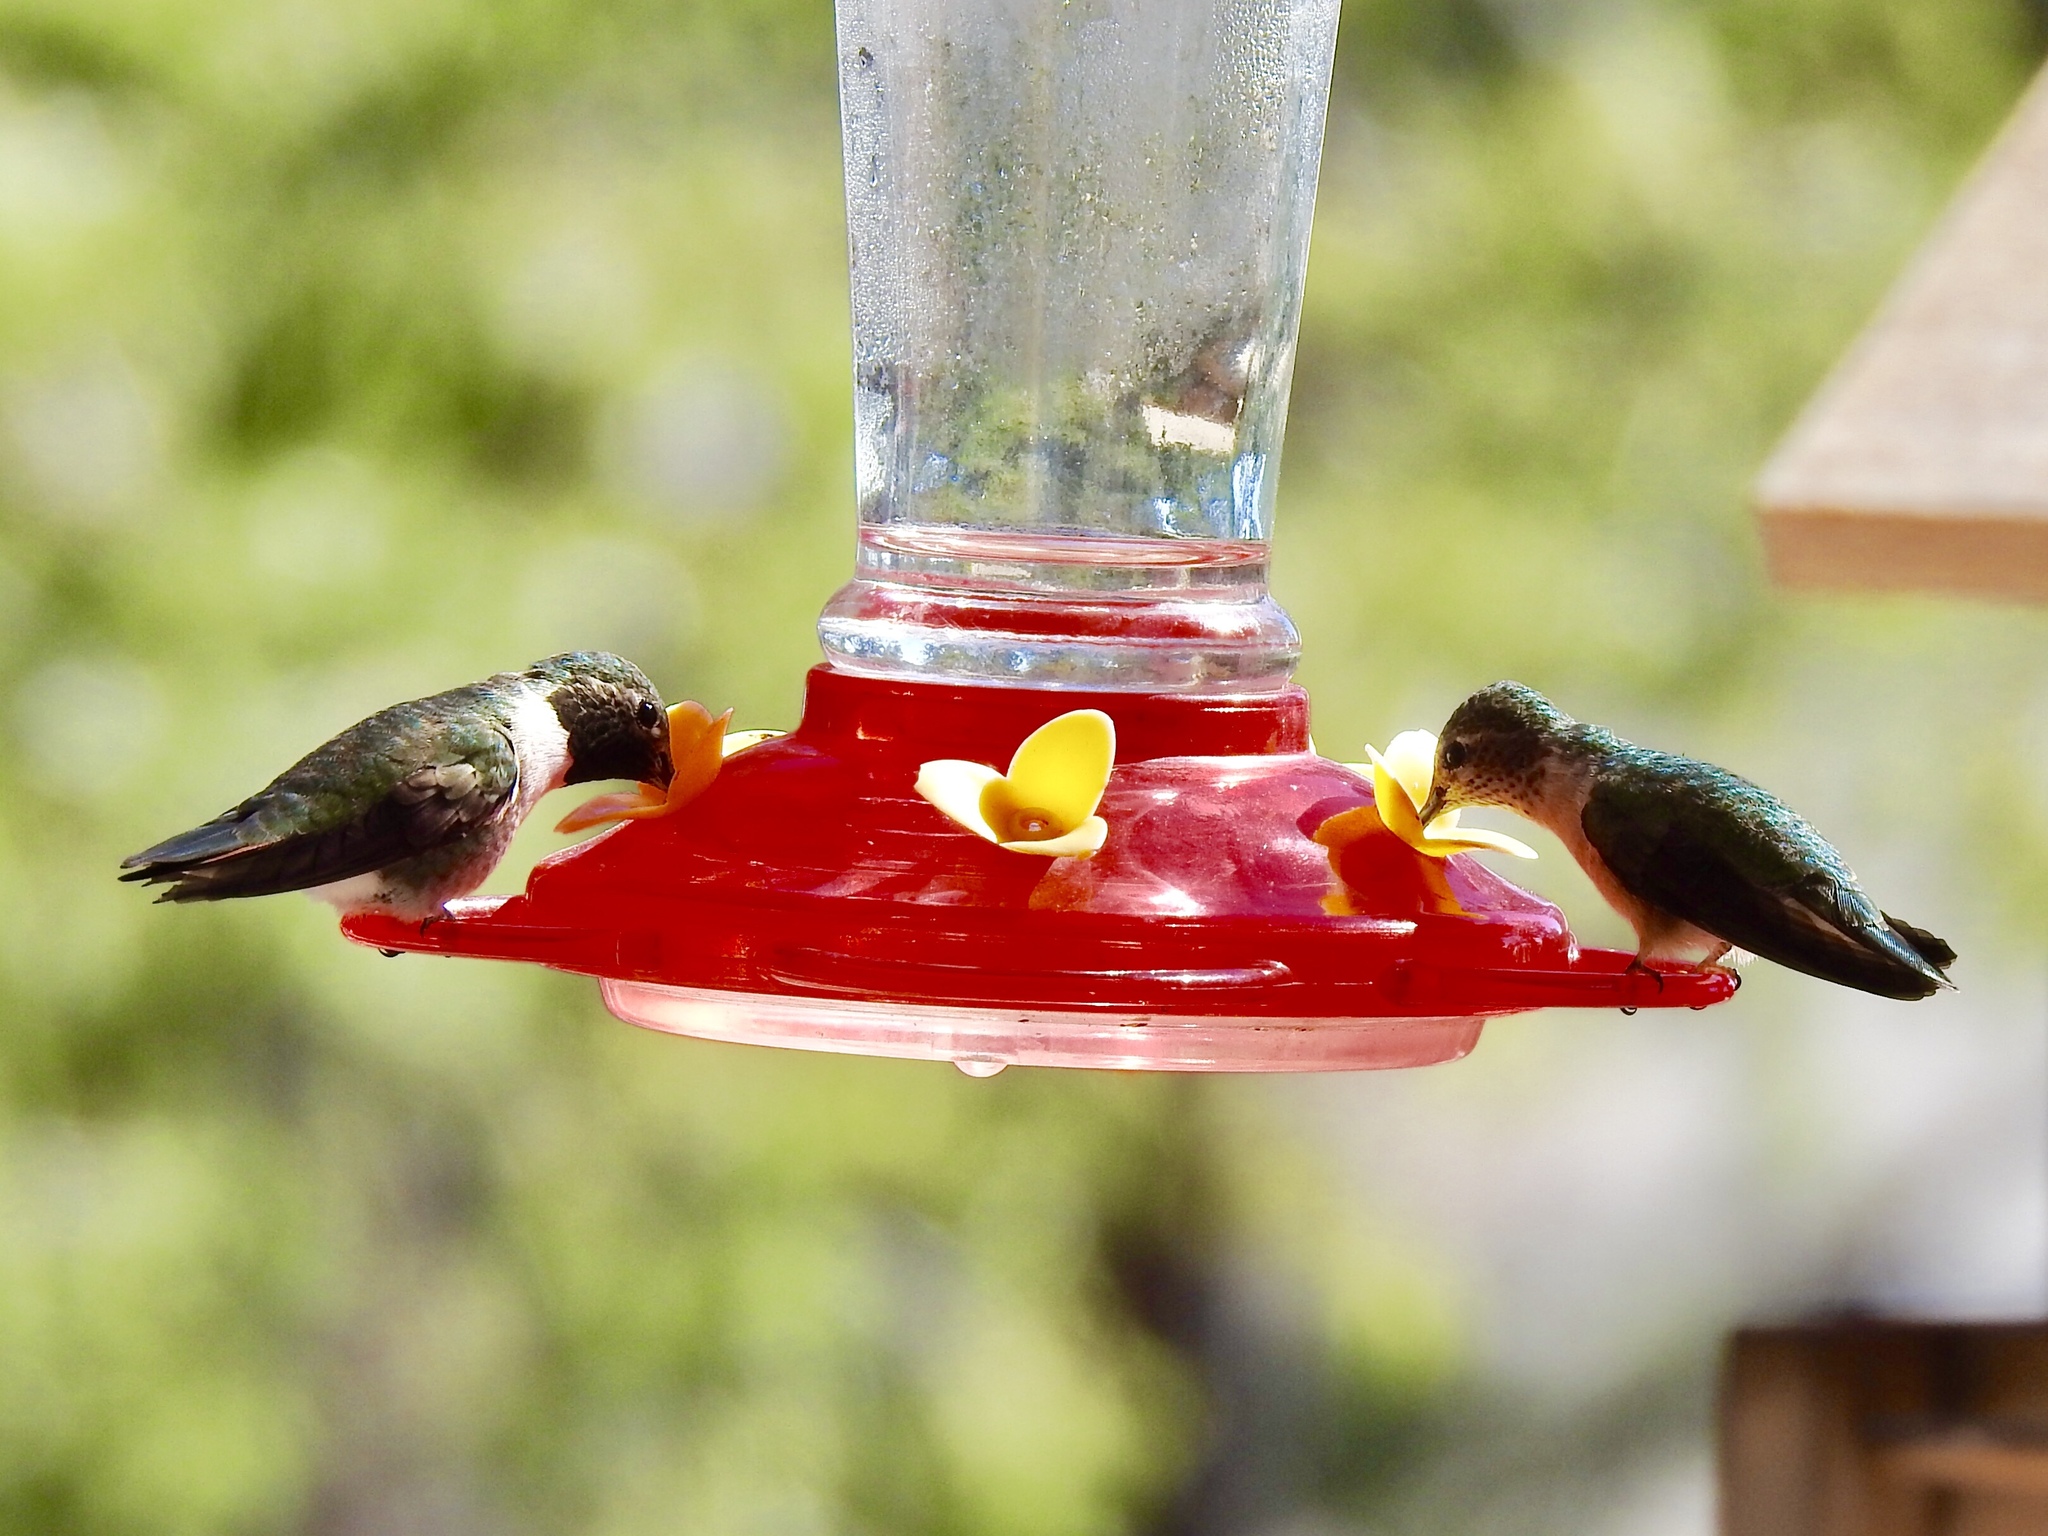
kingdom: Animalia
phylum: Chordata
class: Aves
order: Apodiformes
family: Trochilidae
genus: Selasphorus
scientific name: Selasphorus platycercus
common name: Broad-tailed hummingbird
